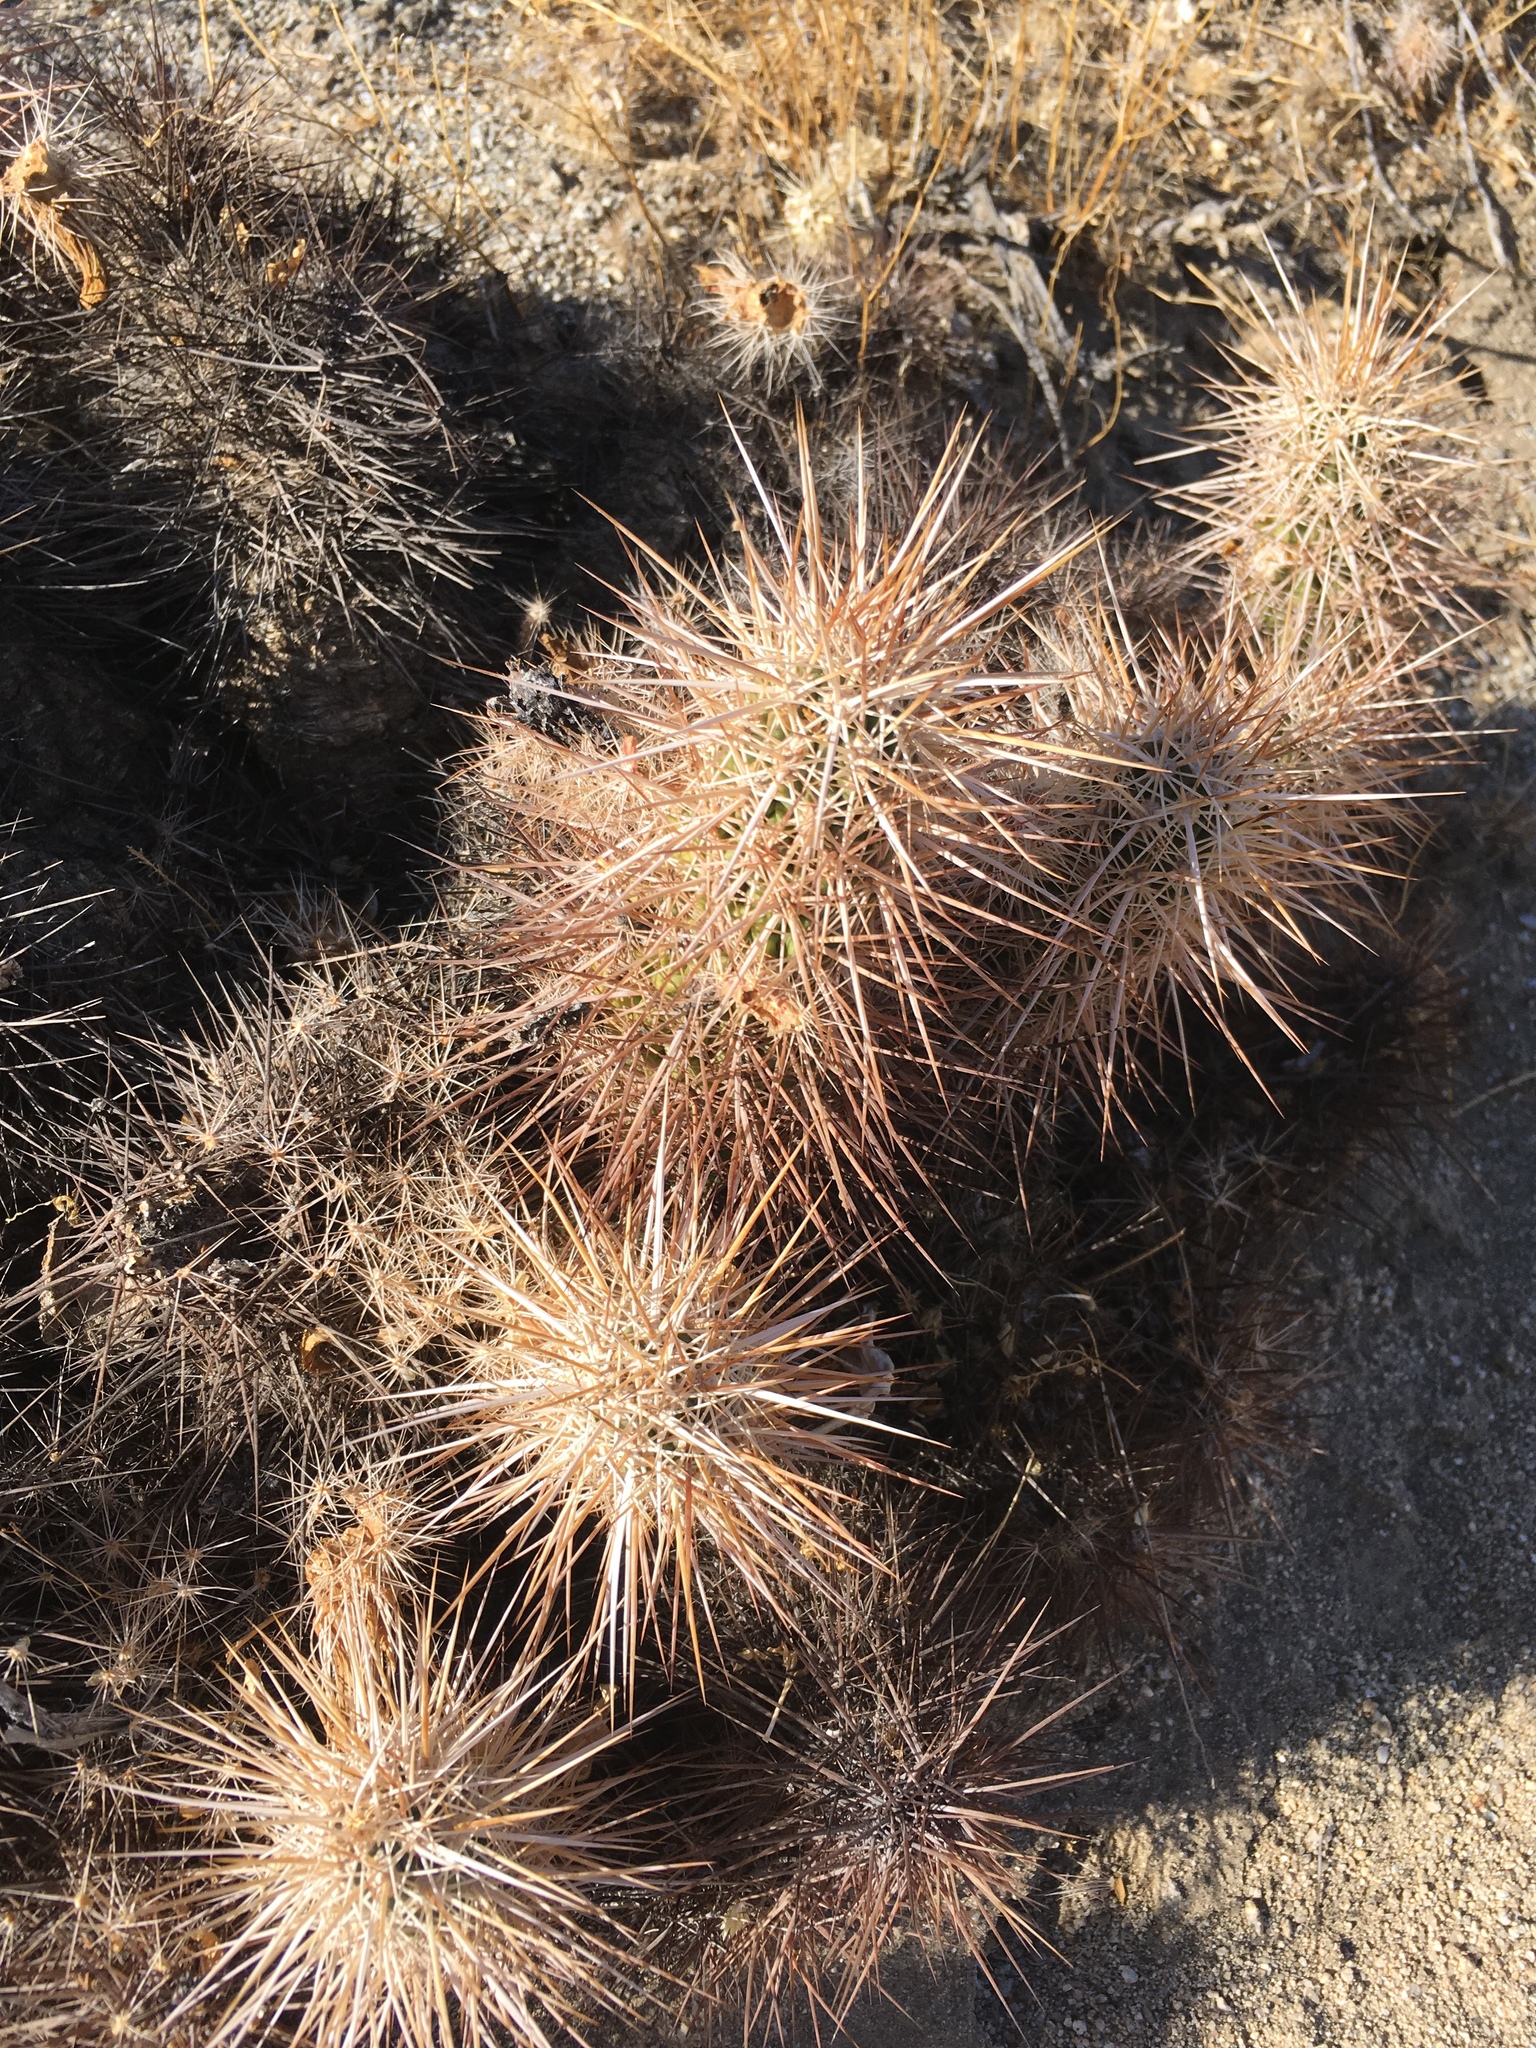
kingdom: Plantae
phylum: Tracheophyta
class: Magnoliopsida
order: Caryophyllales
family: Cactaceae
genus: Echinocereus
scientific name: Echinocereus engelmannii
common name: Engelmann's hedgehog cactus
